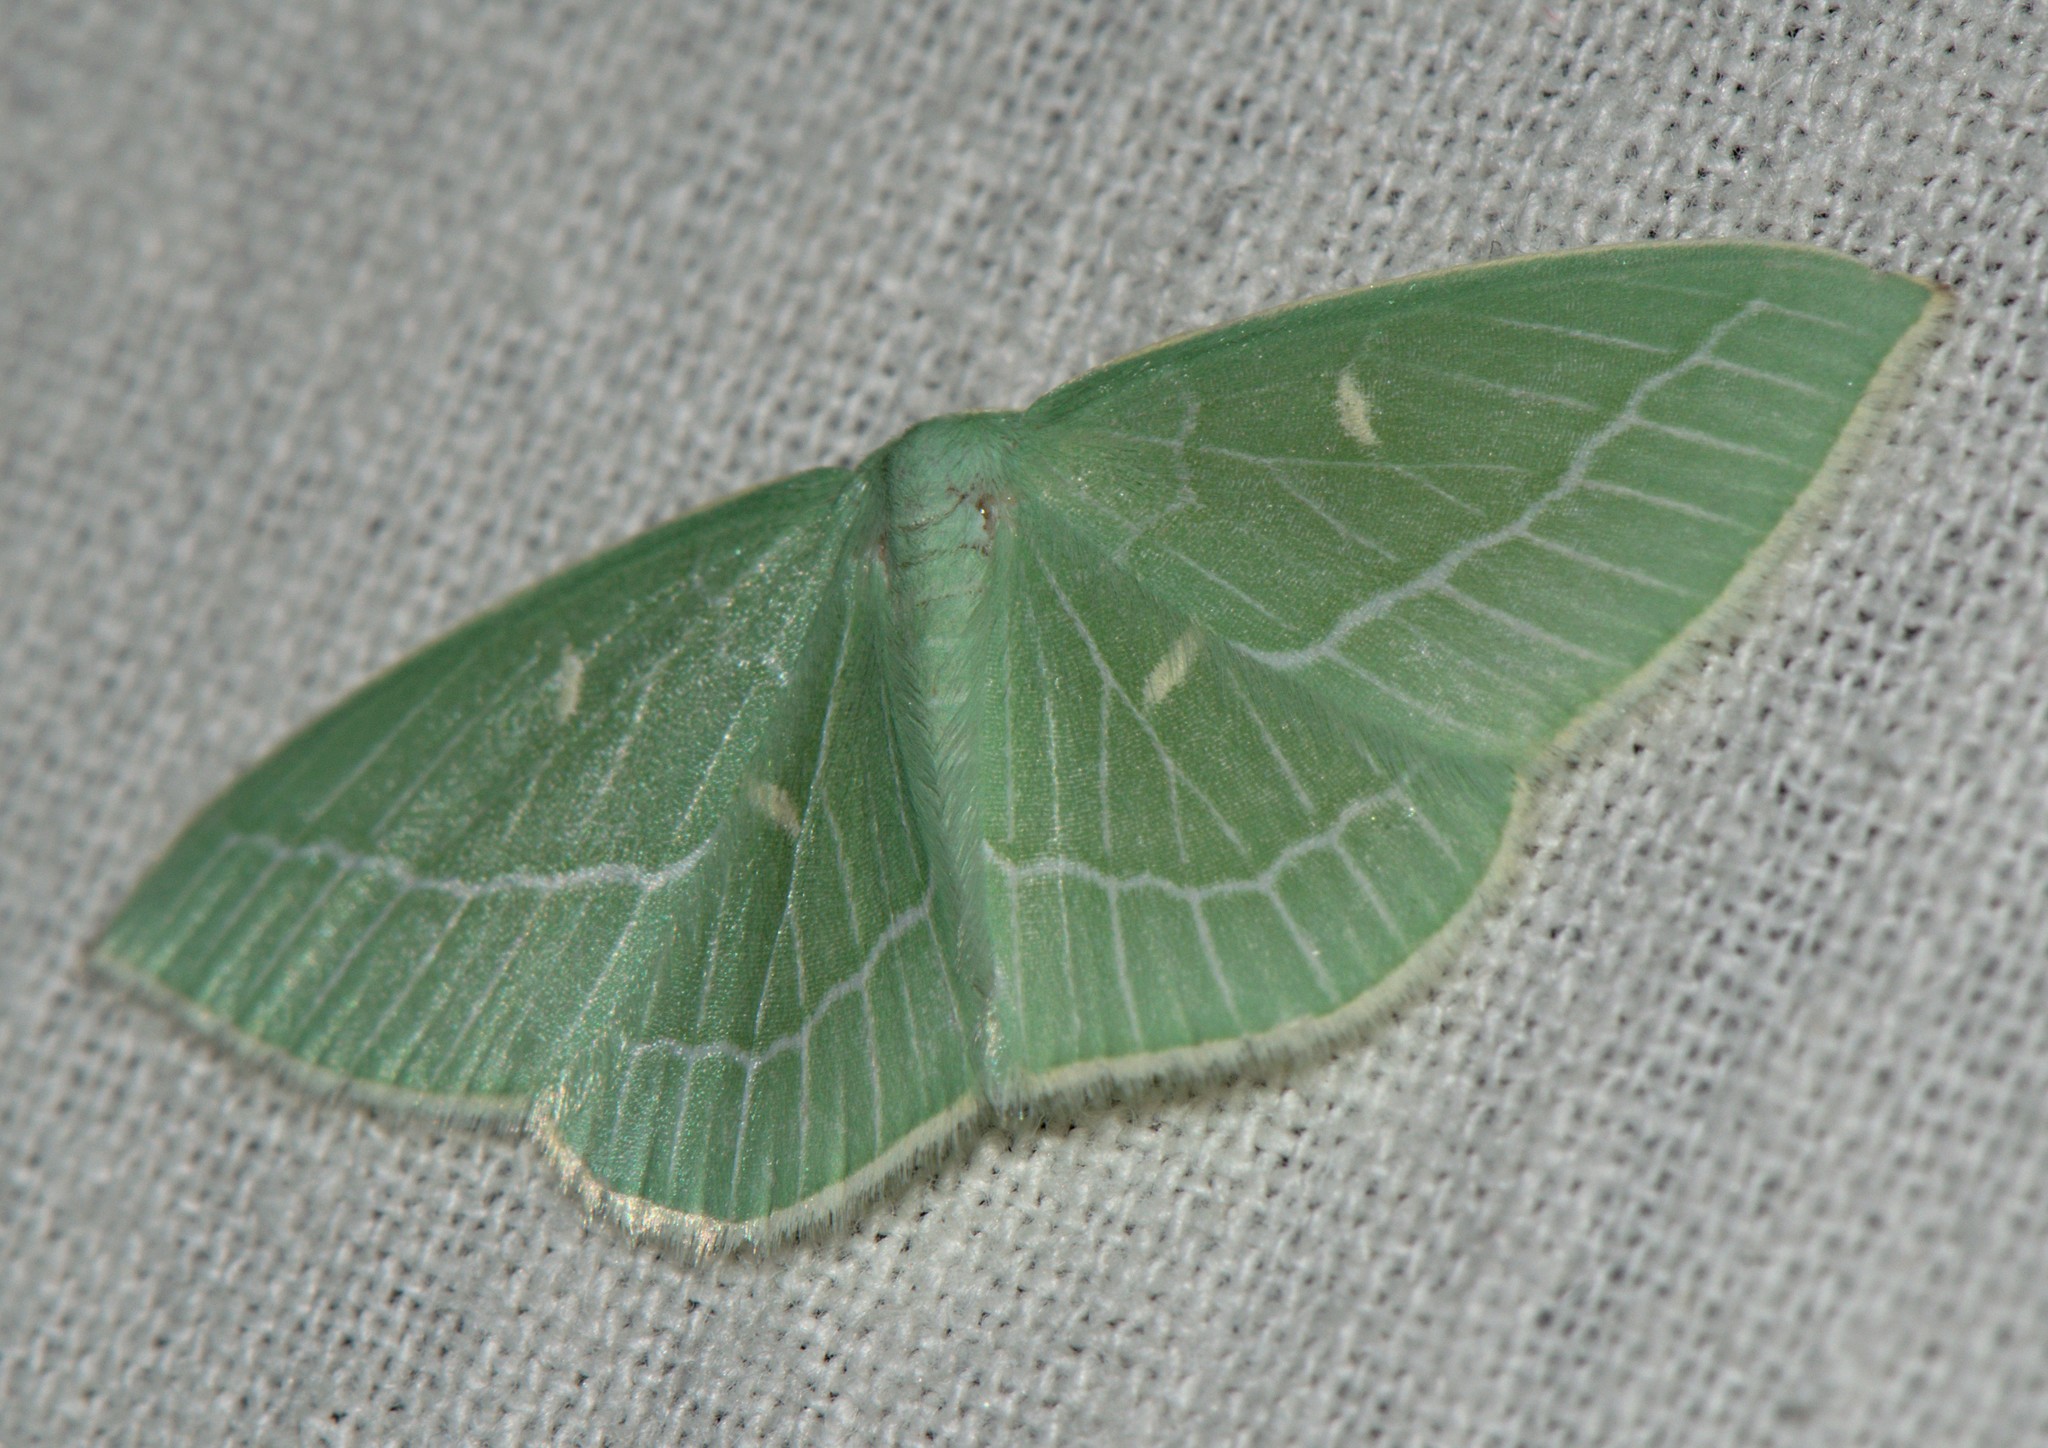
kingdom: Animalia
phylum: Arthropoda
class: Insecta
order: Lepidoptera
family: Geometridae
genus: Hemistola
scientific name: Hemistola loxiaria
